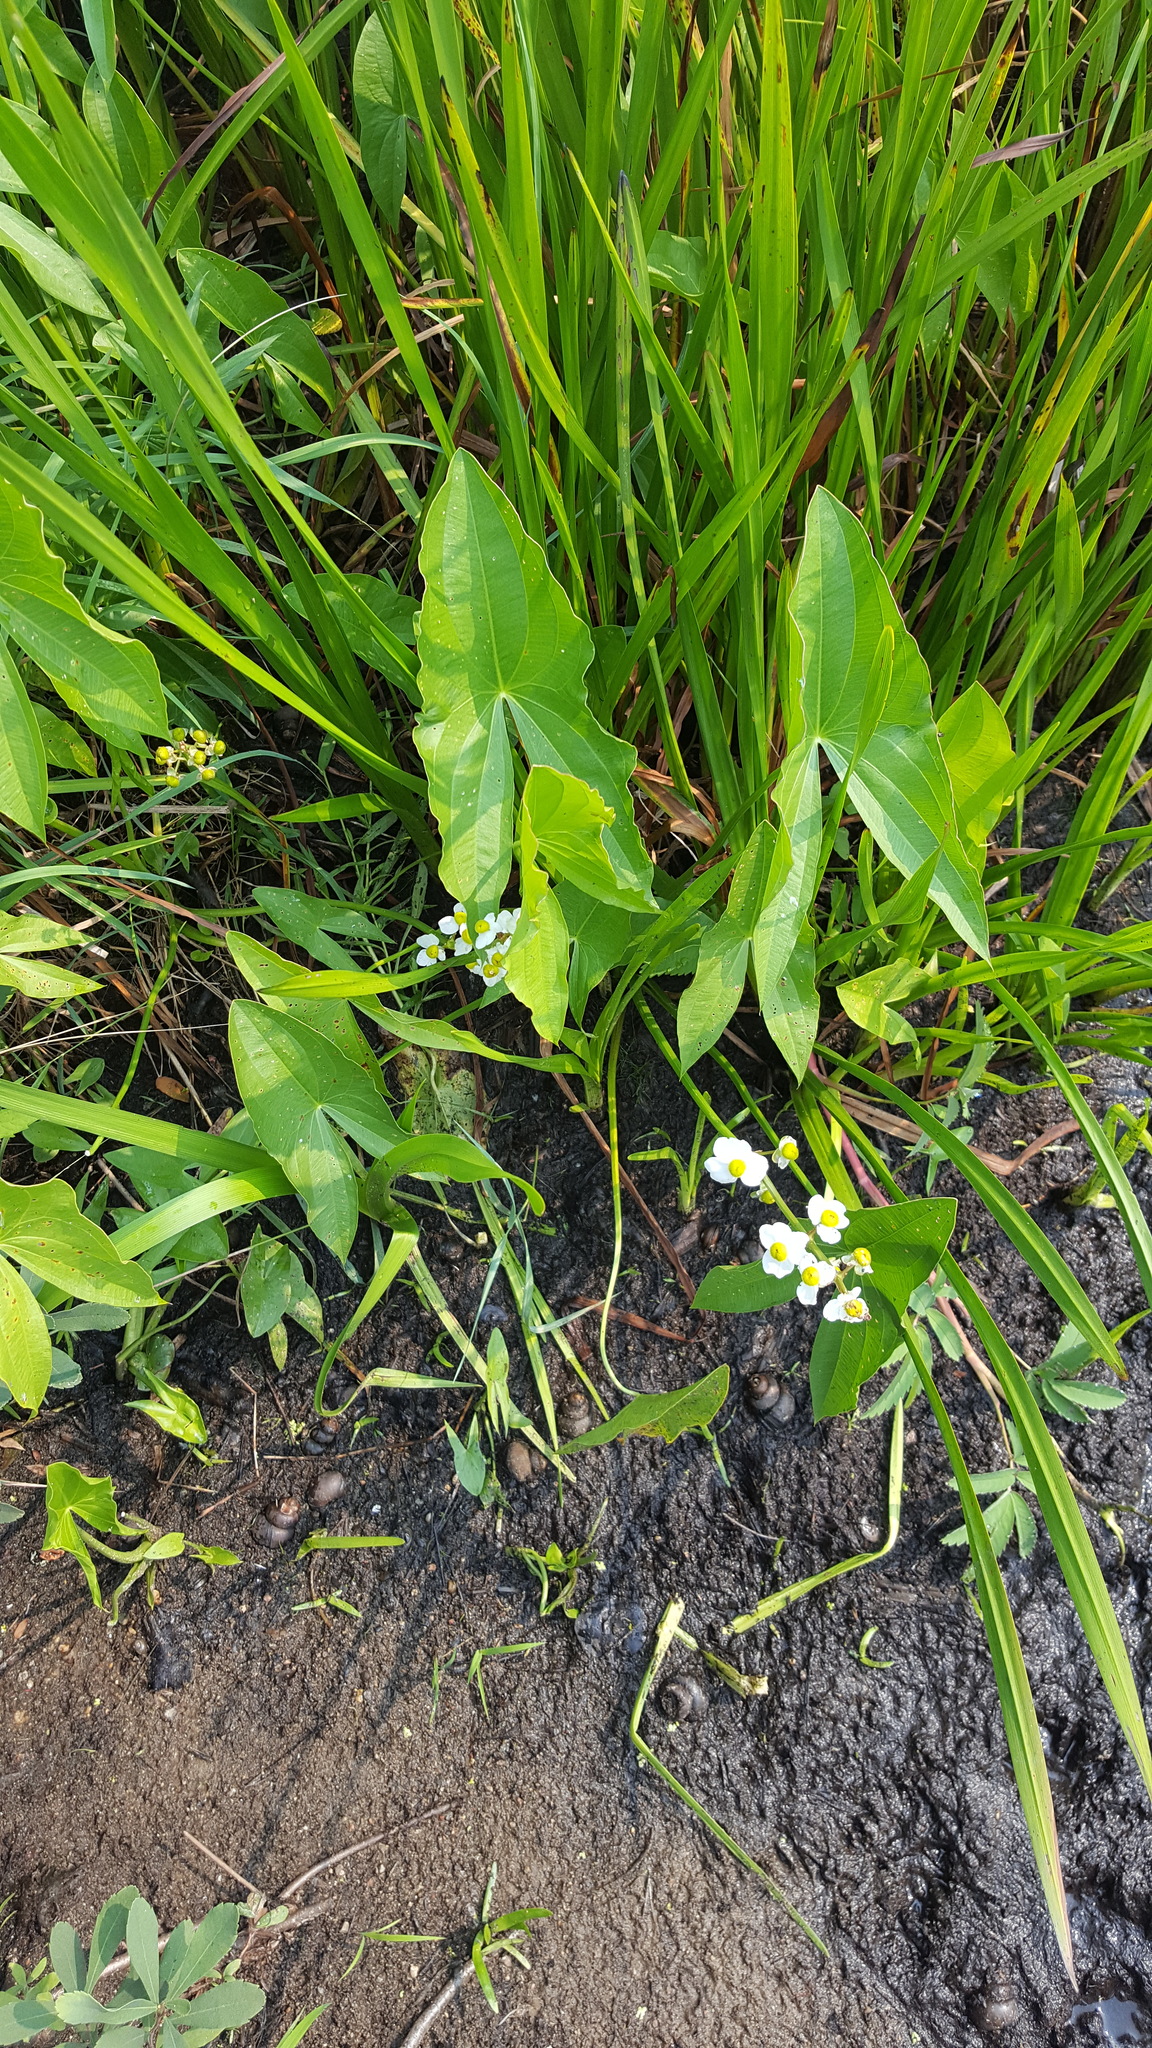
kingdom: Plantae
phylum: Tracheophyta
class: Liliopsida
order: Alismatales
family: Alismataceae
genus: Sagittaria
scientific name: Sagittaria latifolia
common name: Duck-potato
